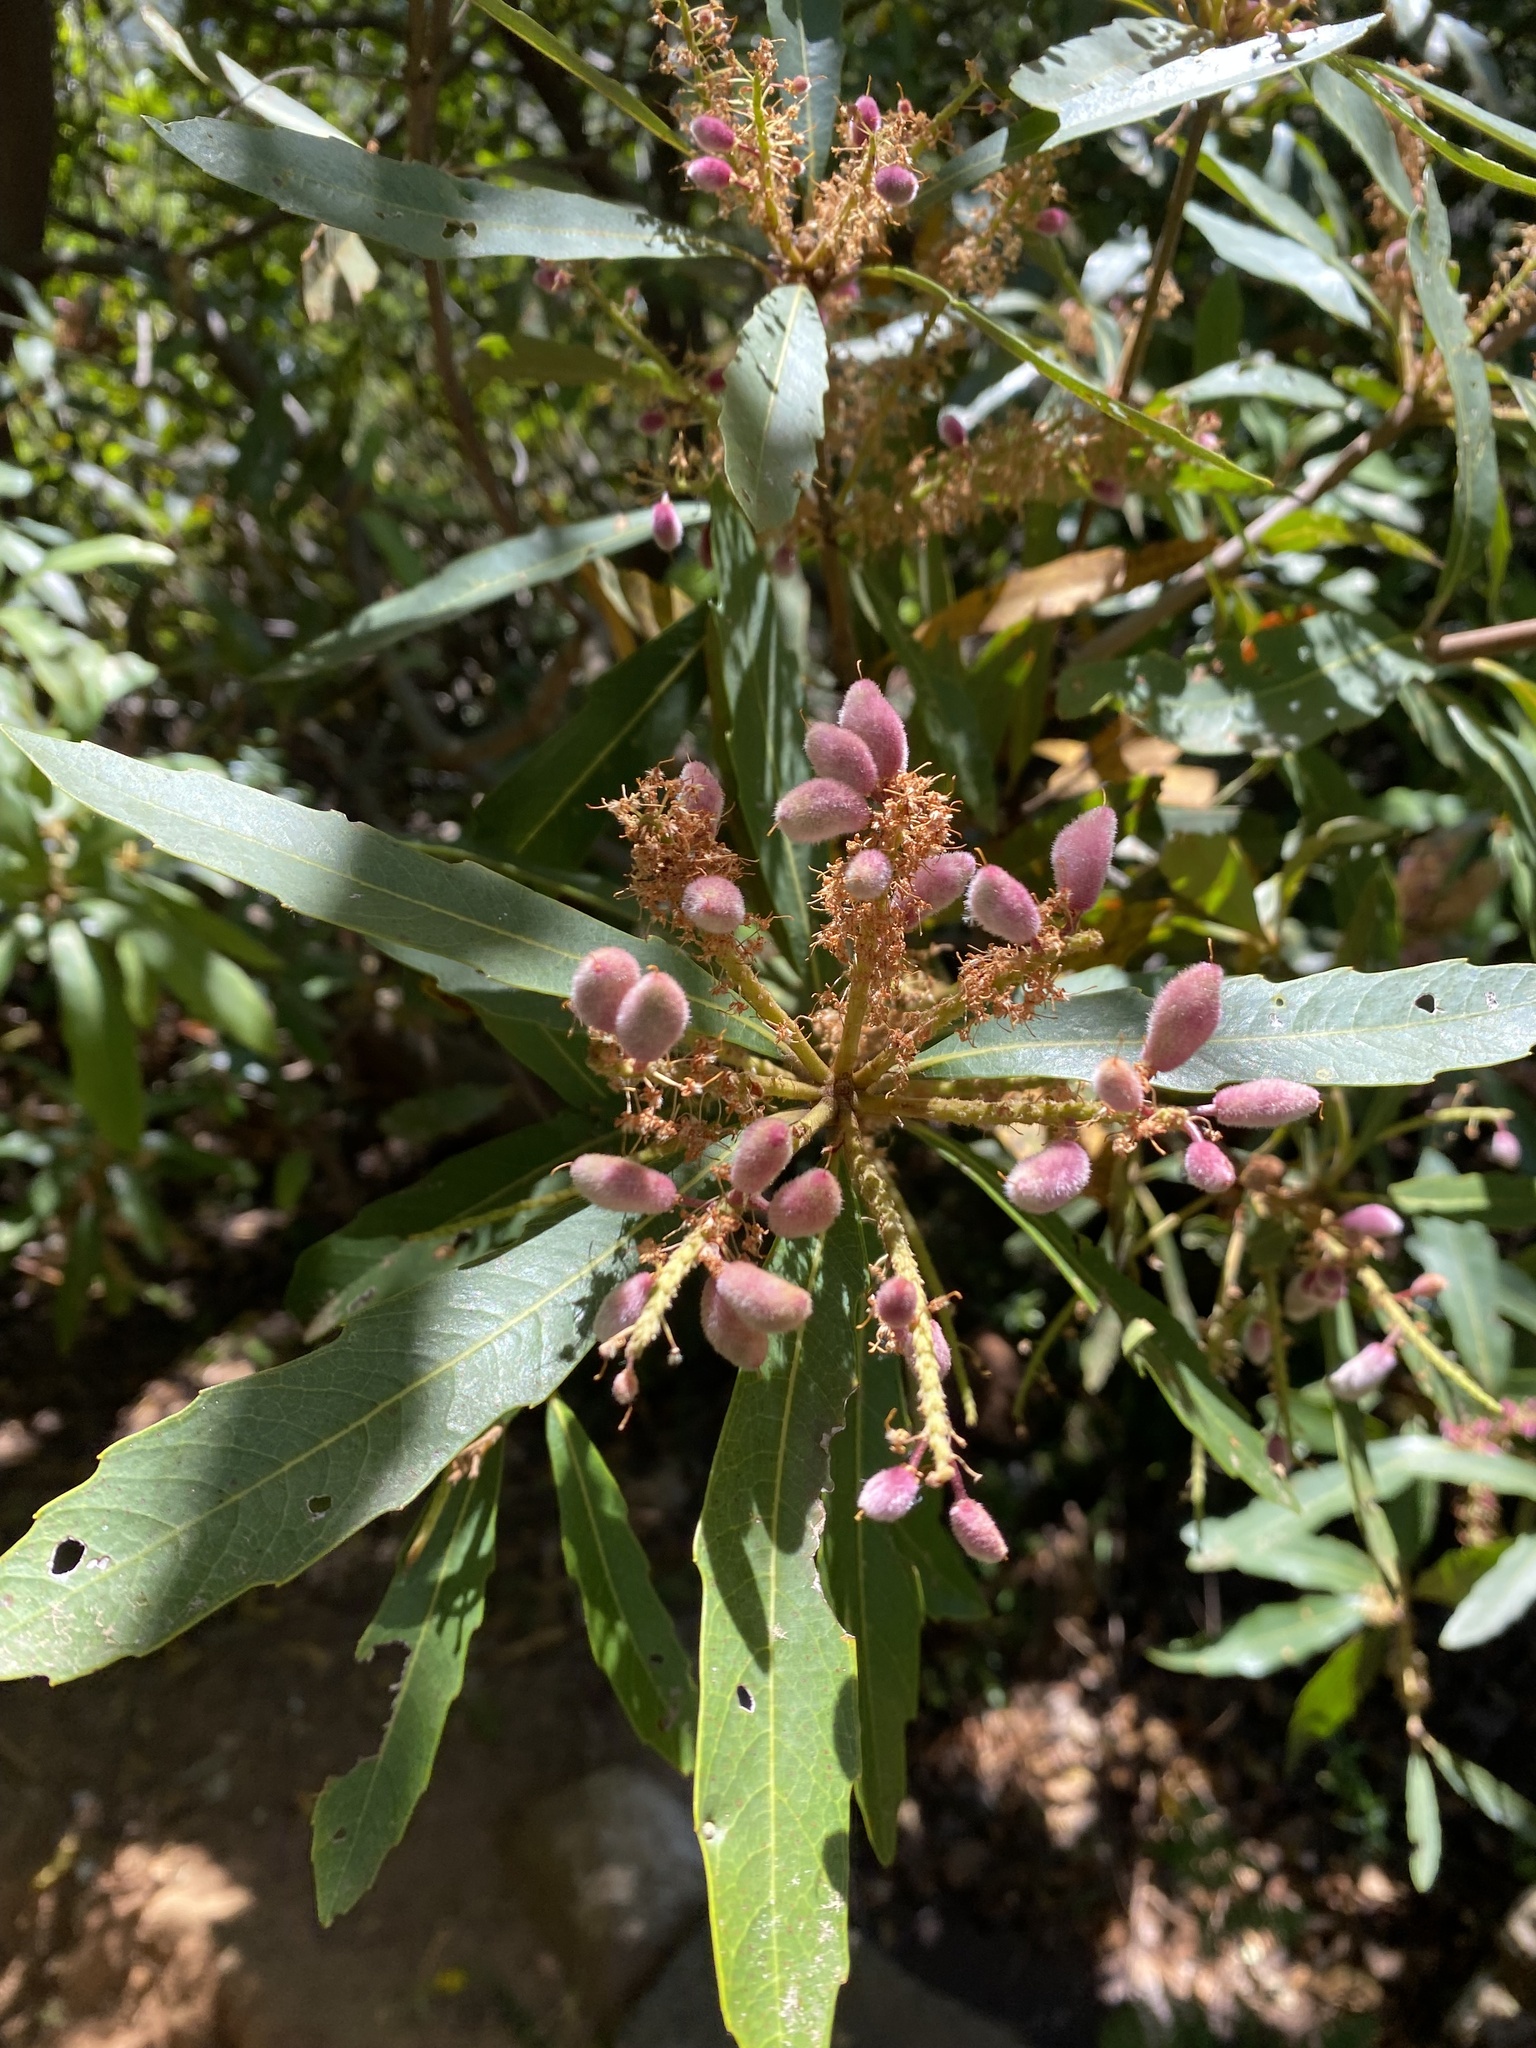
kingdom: Plantae
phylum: Tracheophyta
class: Magnoliopsida
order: Proteales
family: Proteaceae
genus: Brabejum
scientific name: Brabejum stellatifolium
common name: Wild almond
